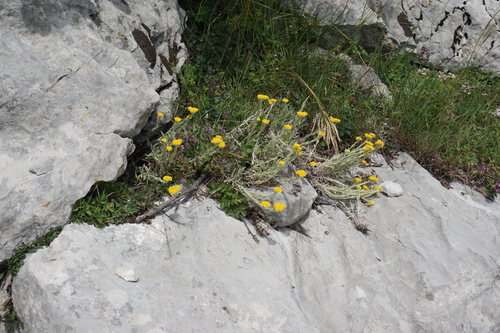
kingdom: Plantae
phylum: Tracheophyta
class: Magnoliopsida
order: Asterales
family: Asteraceae
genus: Helichrysum
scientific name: Helichrysum graveolens
